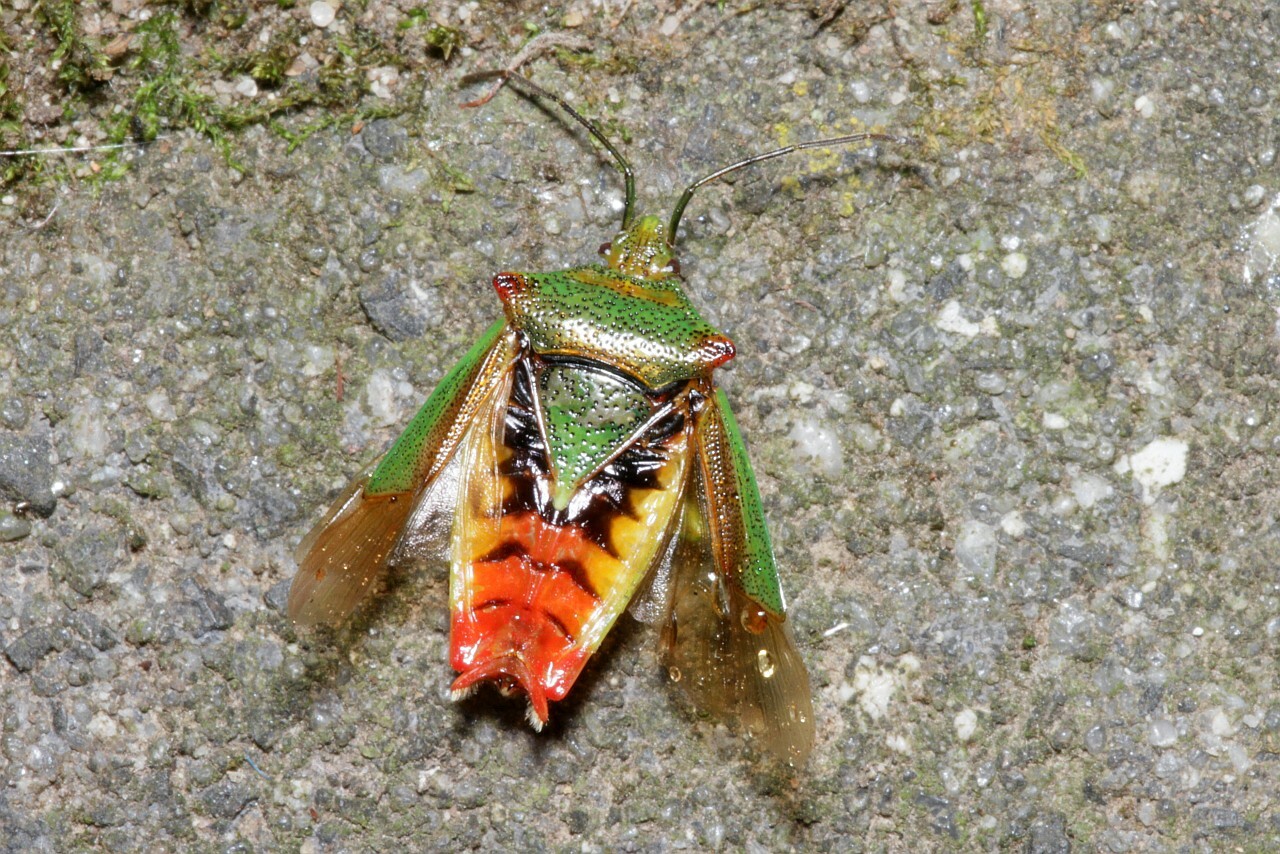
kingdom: Animalia
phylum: Arthropoda
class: Insecta
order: Hemiptera
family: Acanthosomatidae
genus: Acanthosoma
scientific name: Acanthosoma haemorrhoidale
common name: Hawthorn shieldbug
